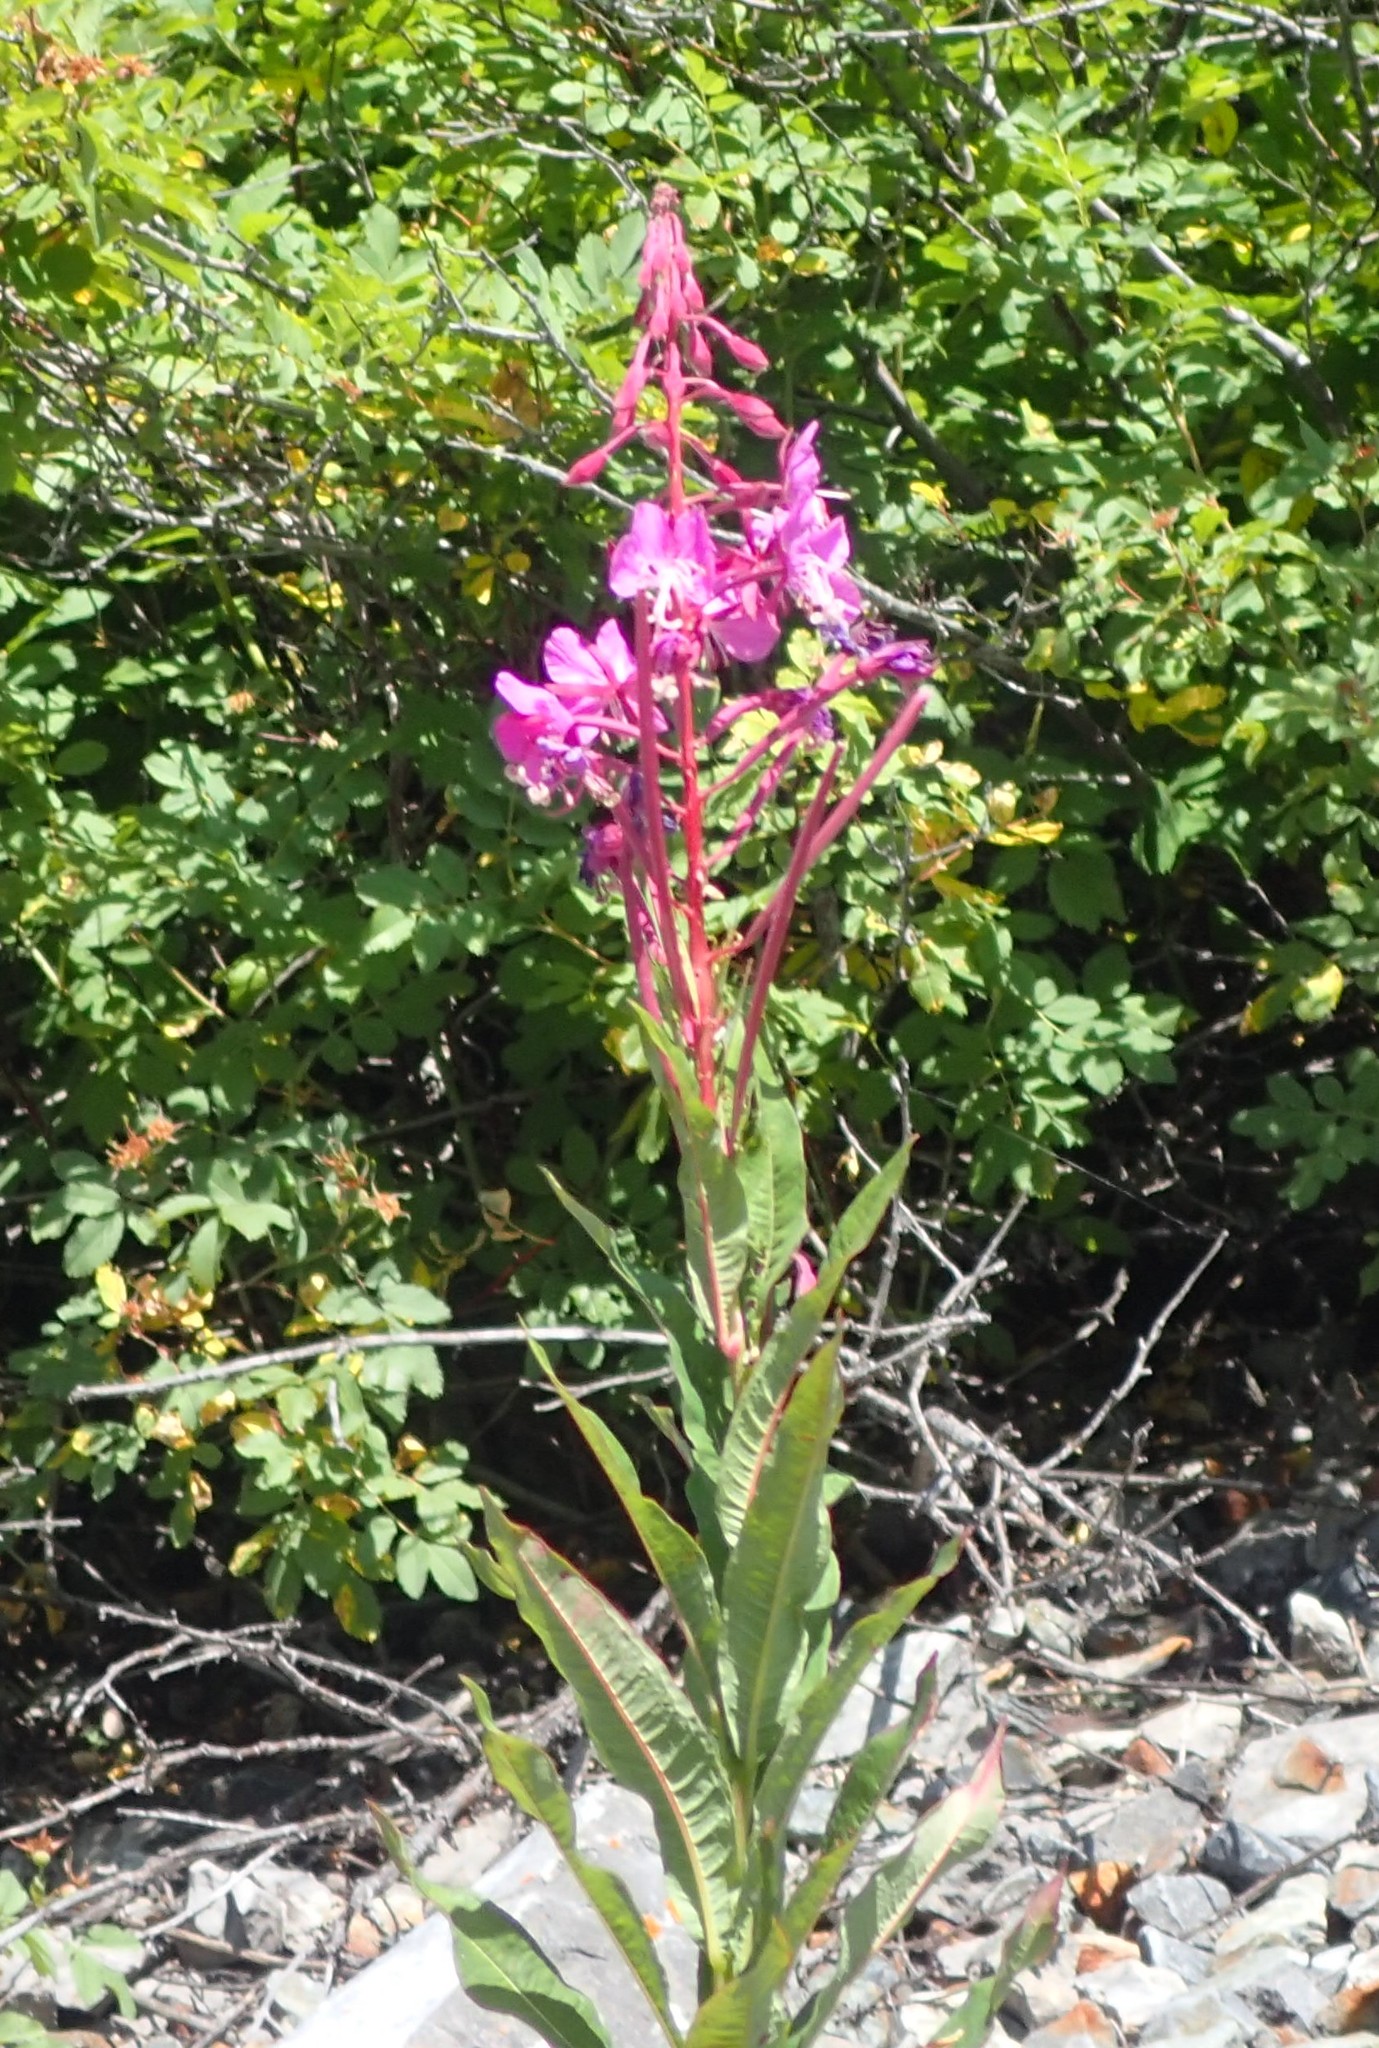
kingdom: Plantae
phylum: Tracheophyta
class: Magnoliopsida
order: Myrtales
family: Onagraceae
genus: Chamaenerion
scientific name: Chamaenerion angustifolium
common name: Fireweed
